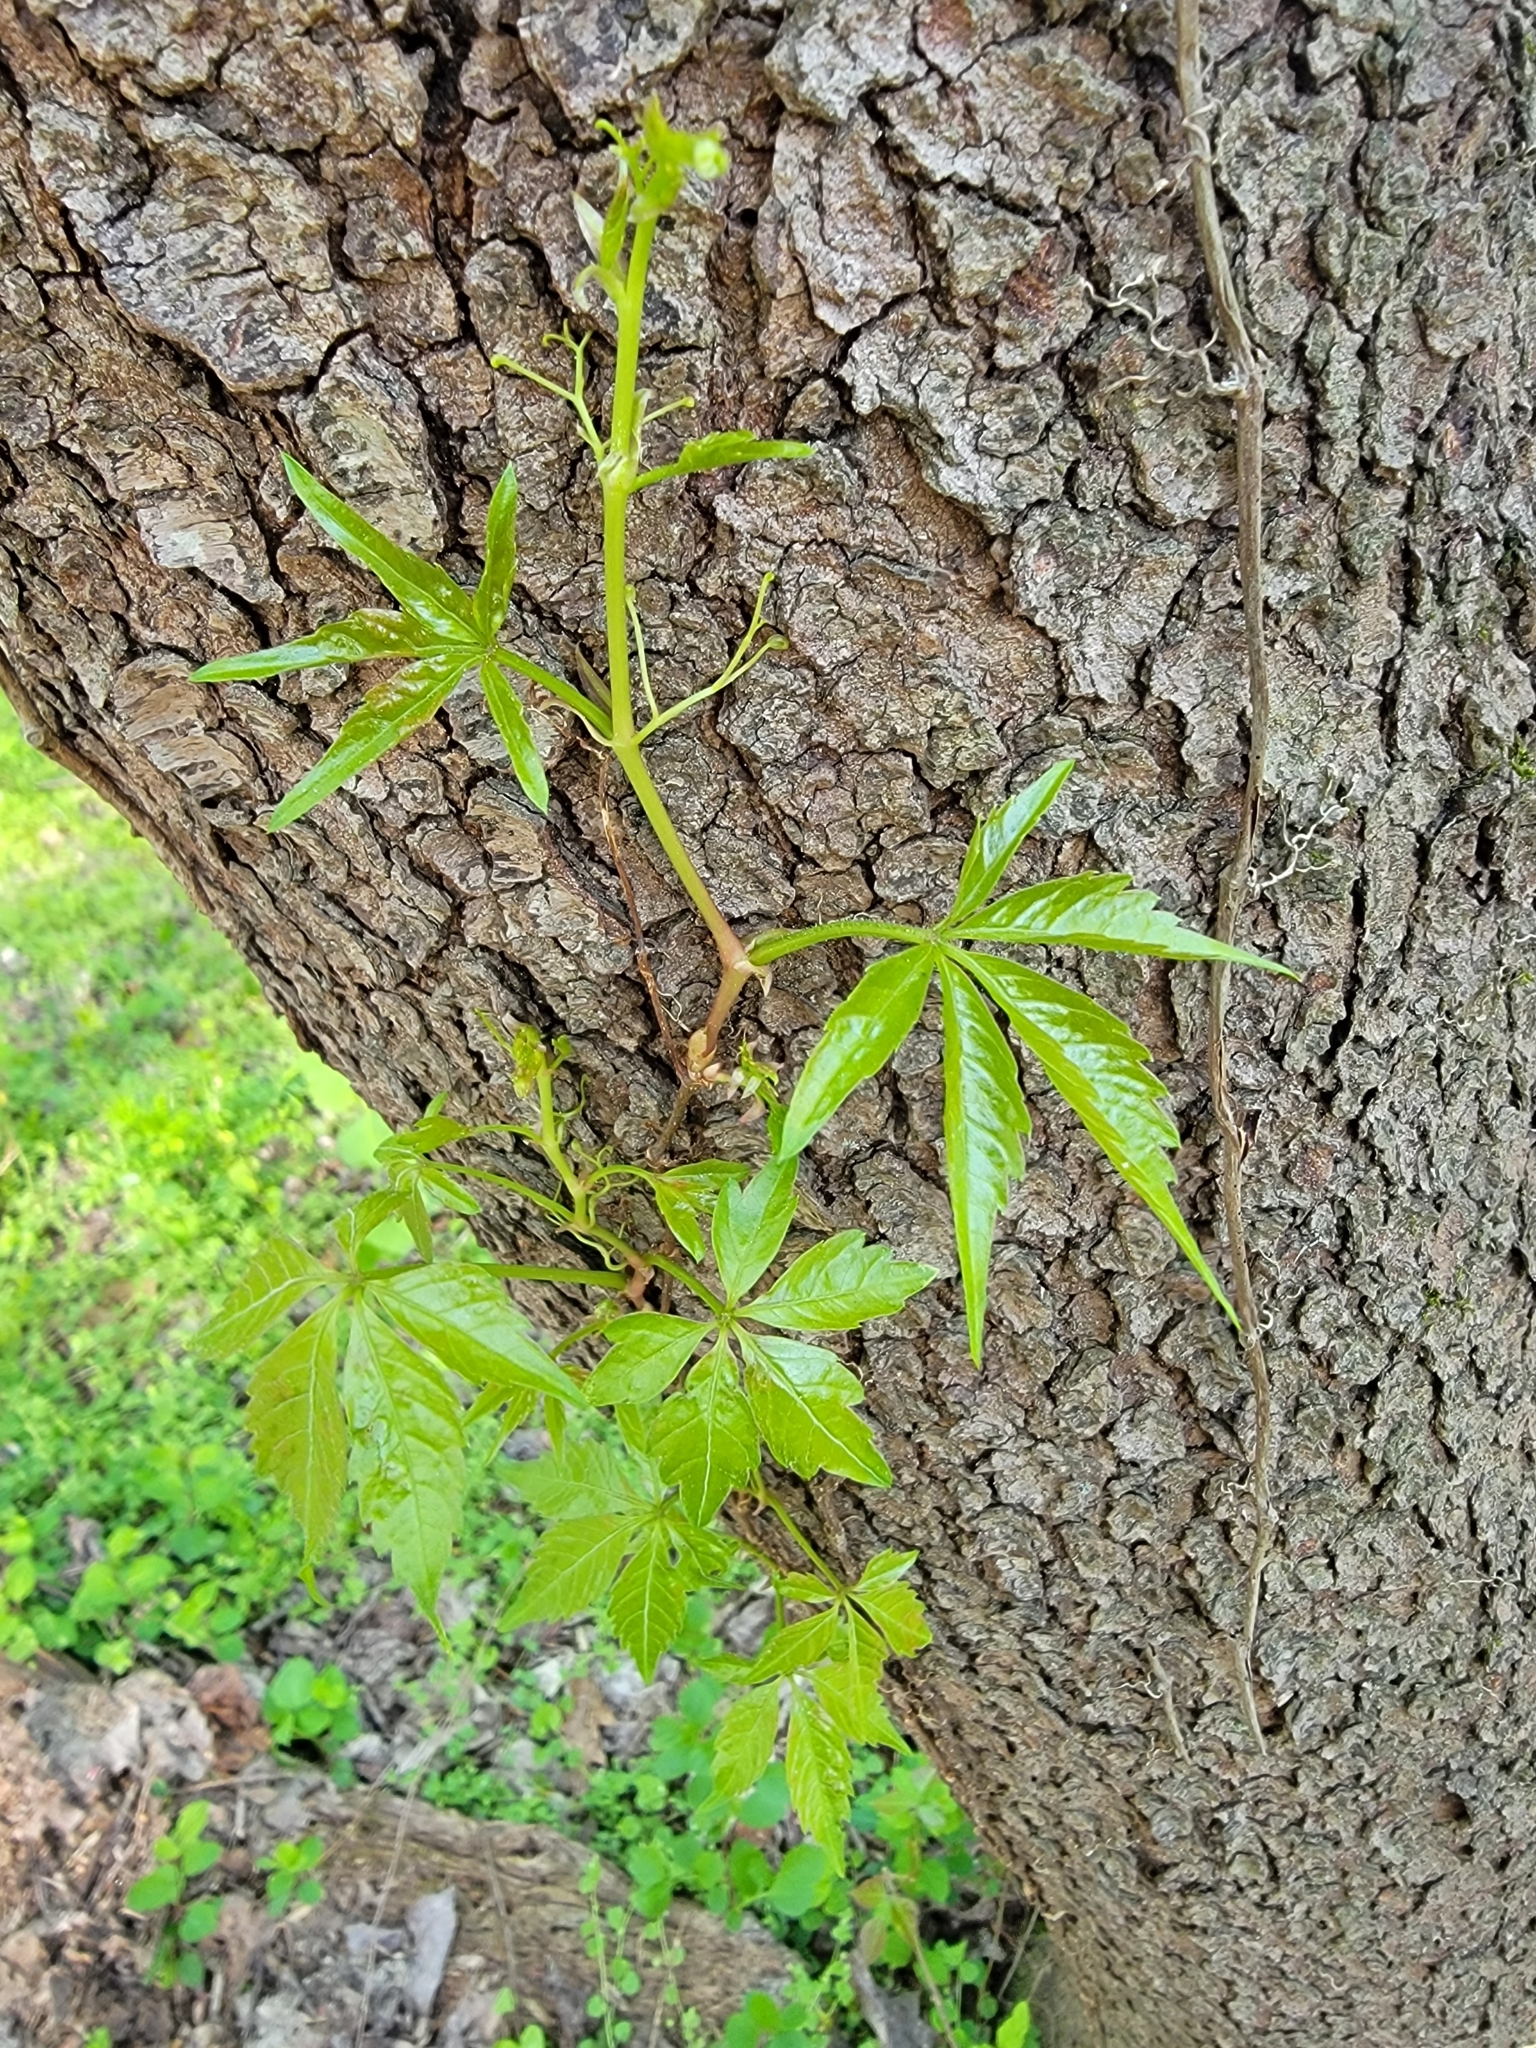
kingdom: Plantae
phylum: Tracheophyta
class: Magnoliopsida
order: Vitales
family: Vitaceae
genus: Parthenocissus
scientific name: Parthenocissus quinquefolia
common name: Virginia-creeper
